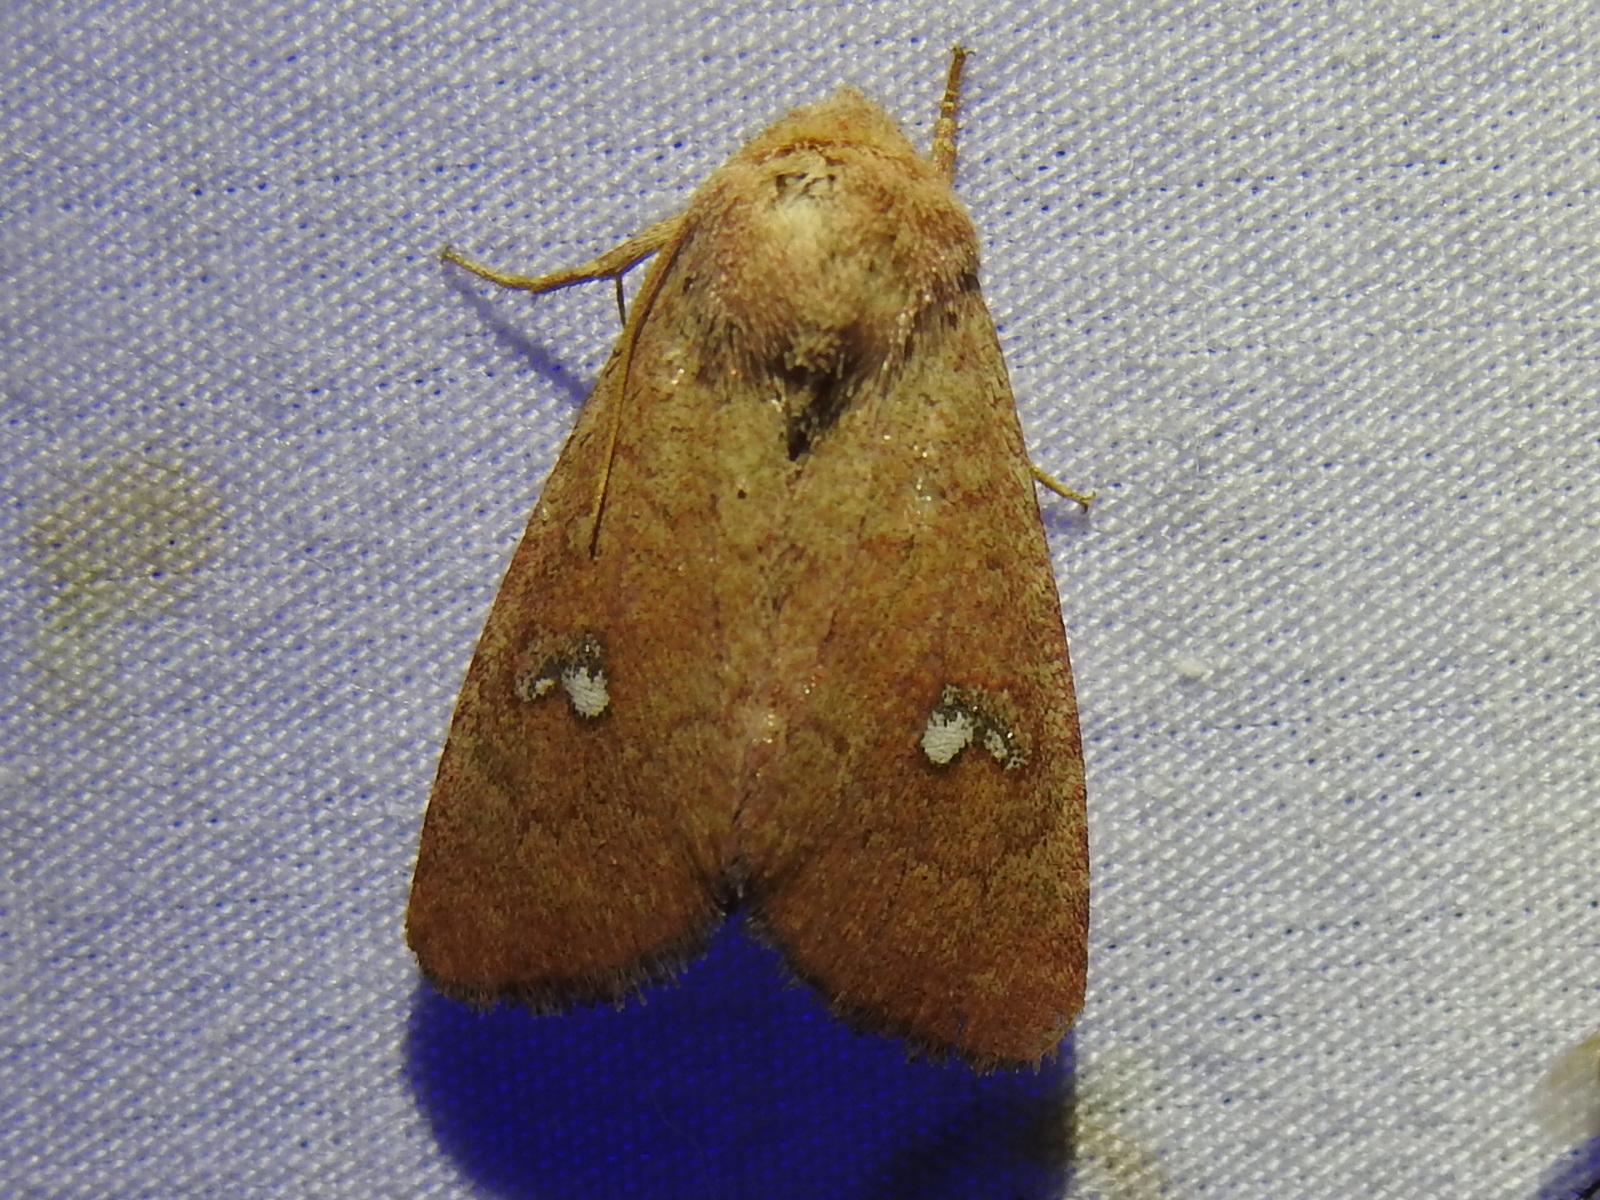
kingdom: Animalia
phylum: Arthropoda
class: Insecta
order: Lepidoptera
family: Noctuidae
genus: Sideridis
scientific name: Sideridis ruisa
